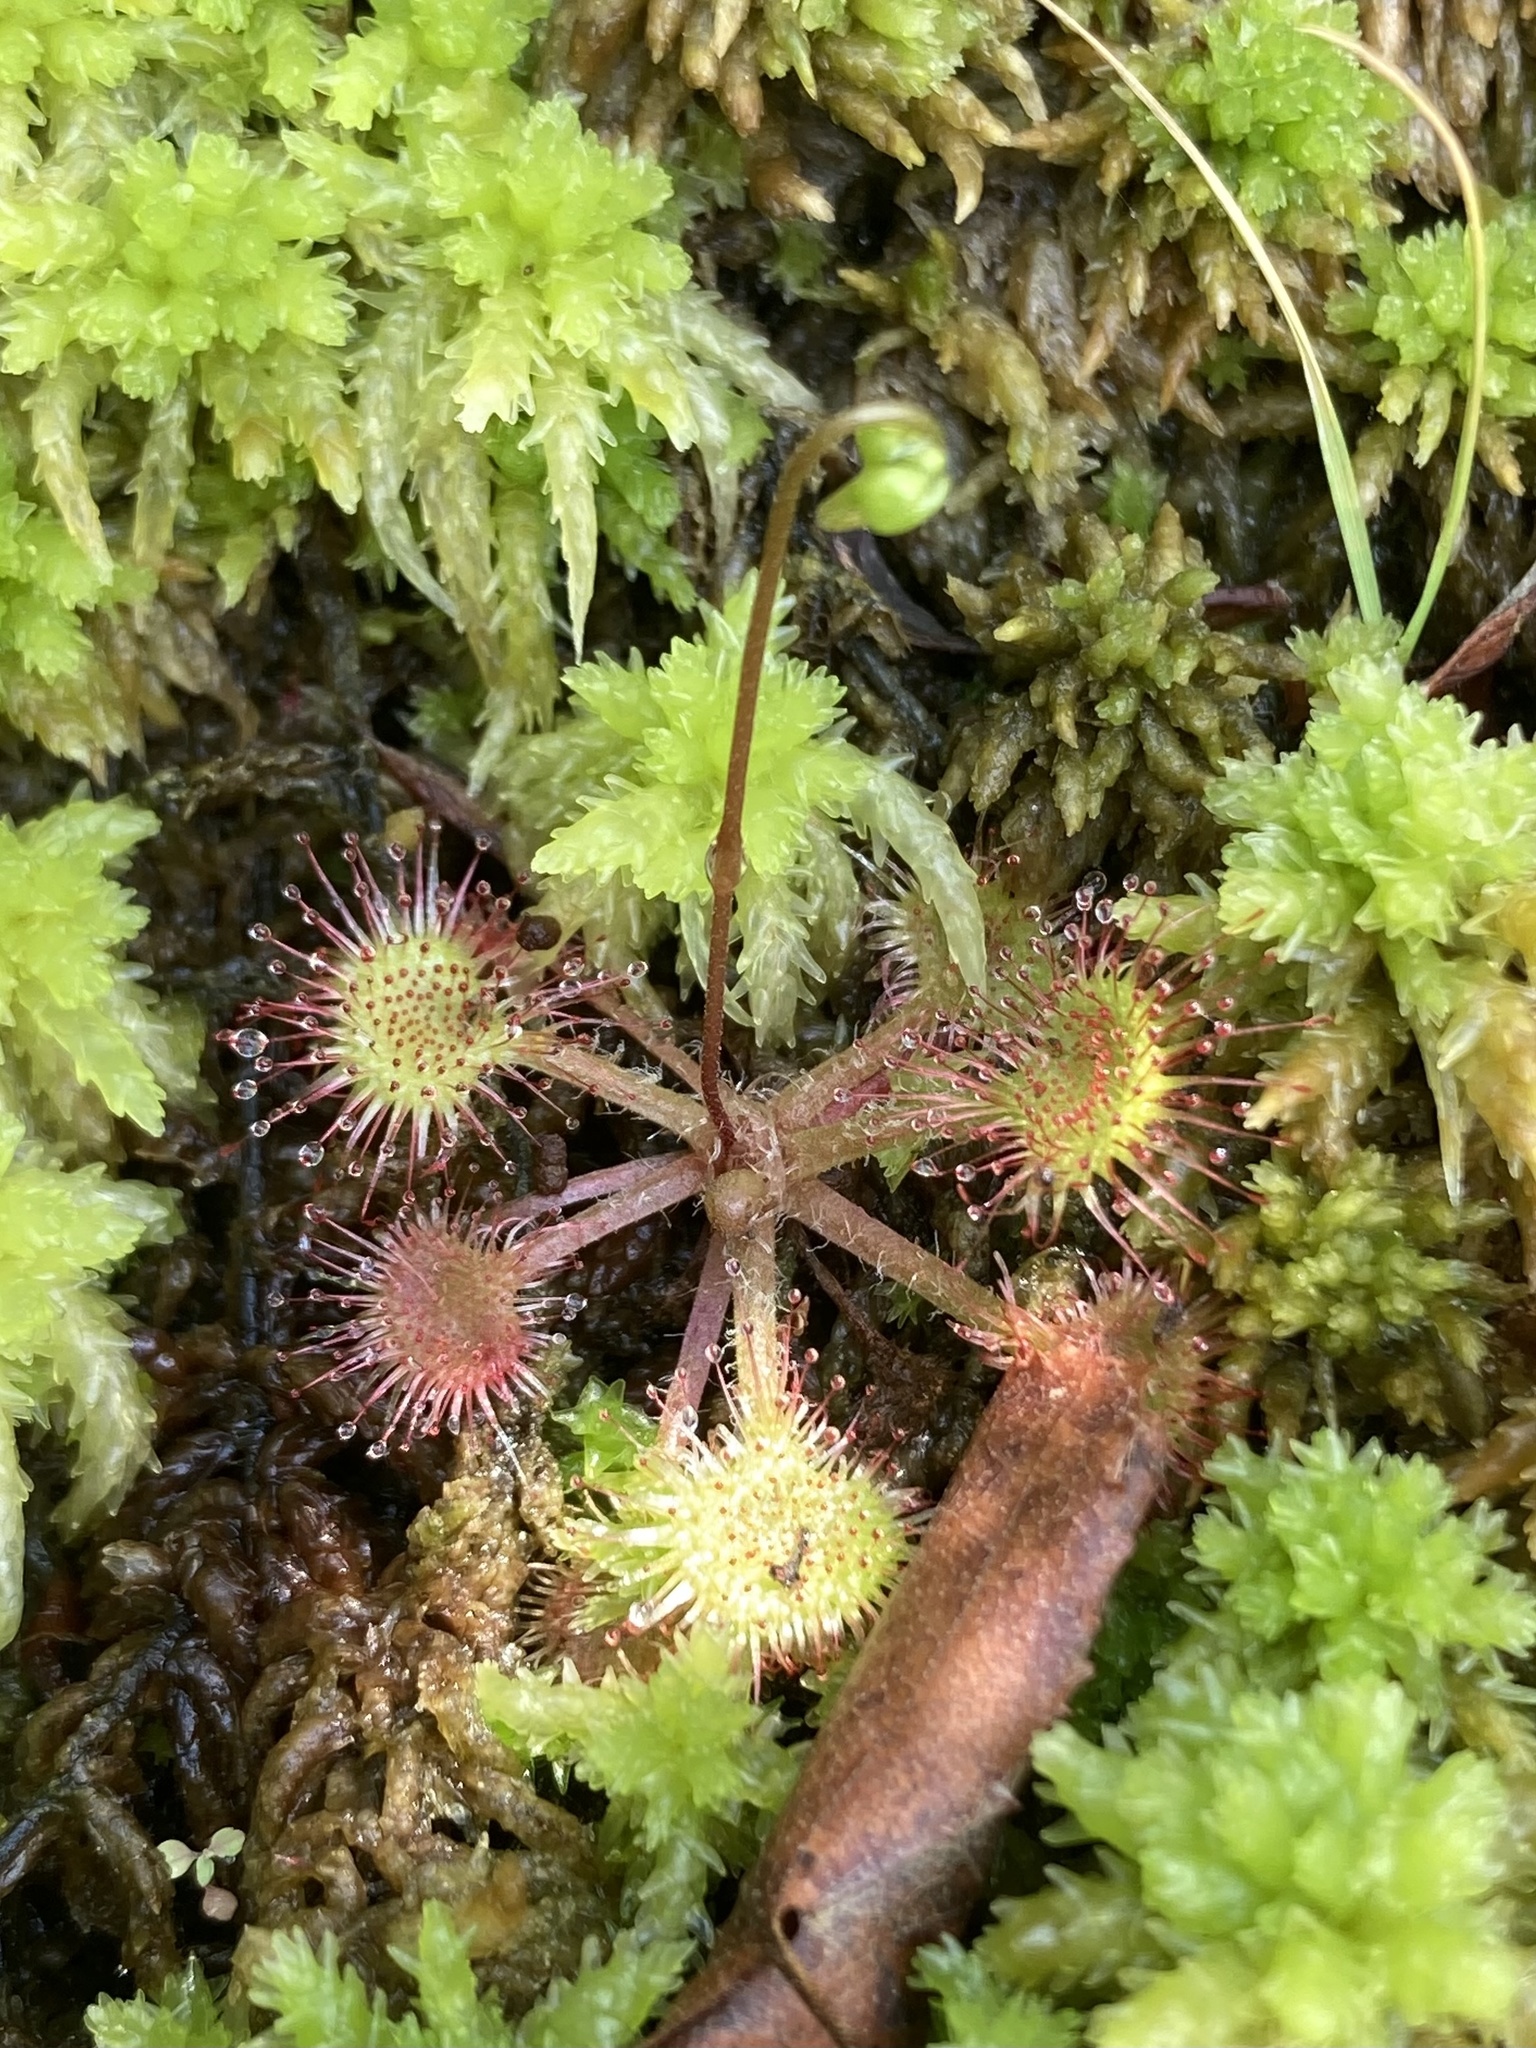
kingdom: Plantae
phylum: Tracheophyta
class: Magnoliopsida
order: Caryophyllales
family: Droseraceae
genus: Drosera
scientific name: Drosera rotundifolia
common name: Round-leaved sundew
